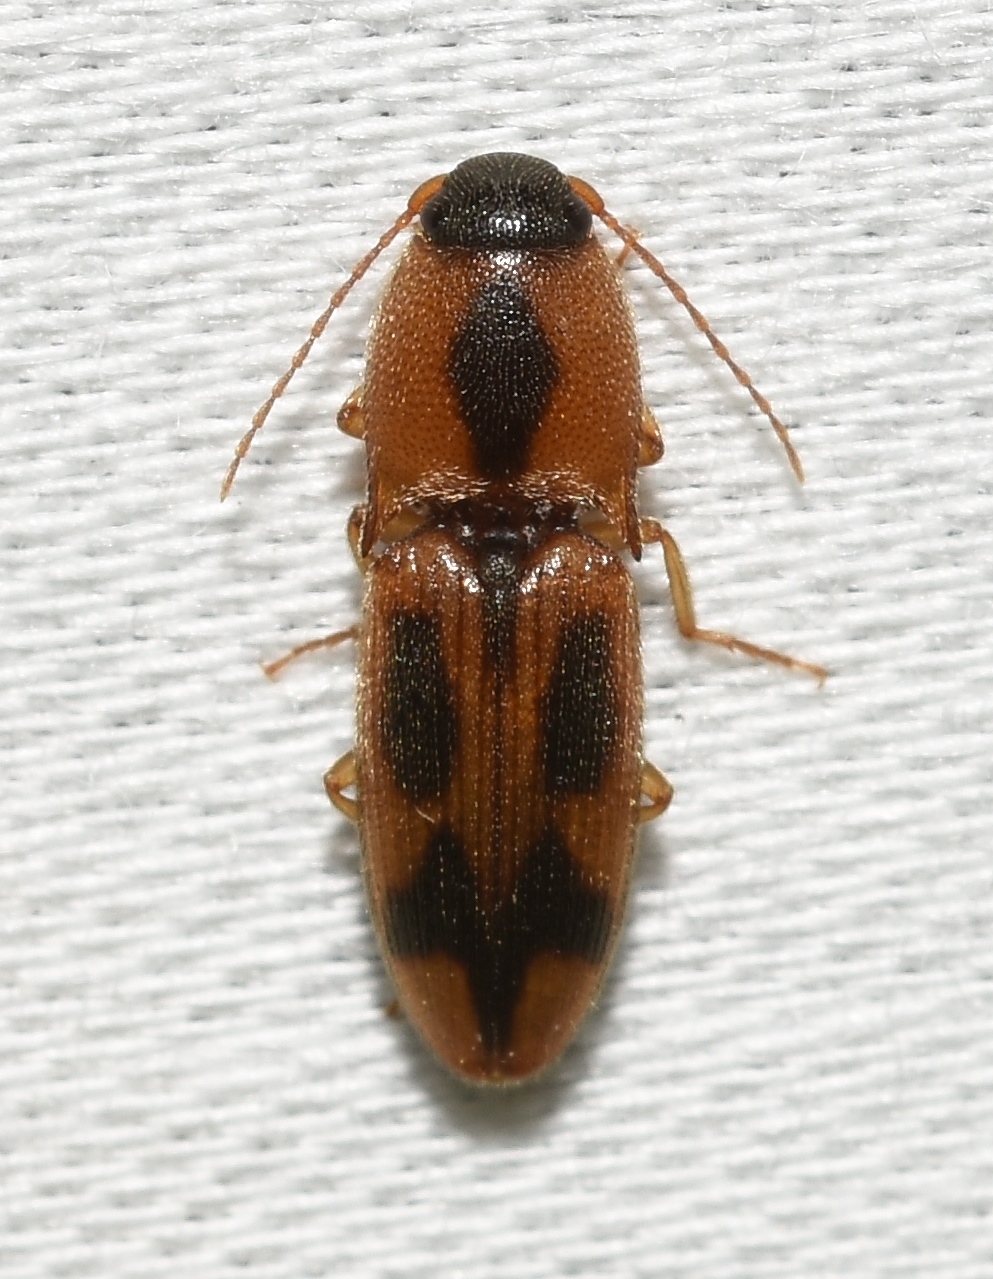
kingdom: Animalia
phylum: Arthropoda
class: Insecta
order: Coleoptera
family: Elateridae
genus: Aeolus
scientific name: Aeolus mellillus
